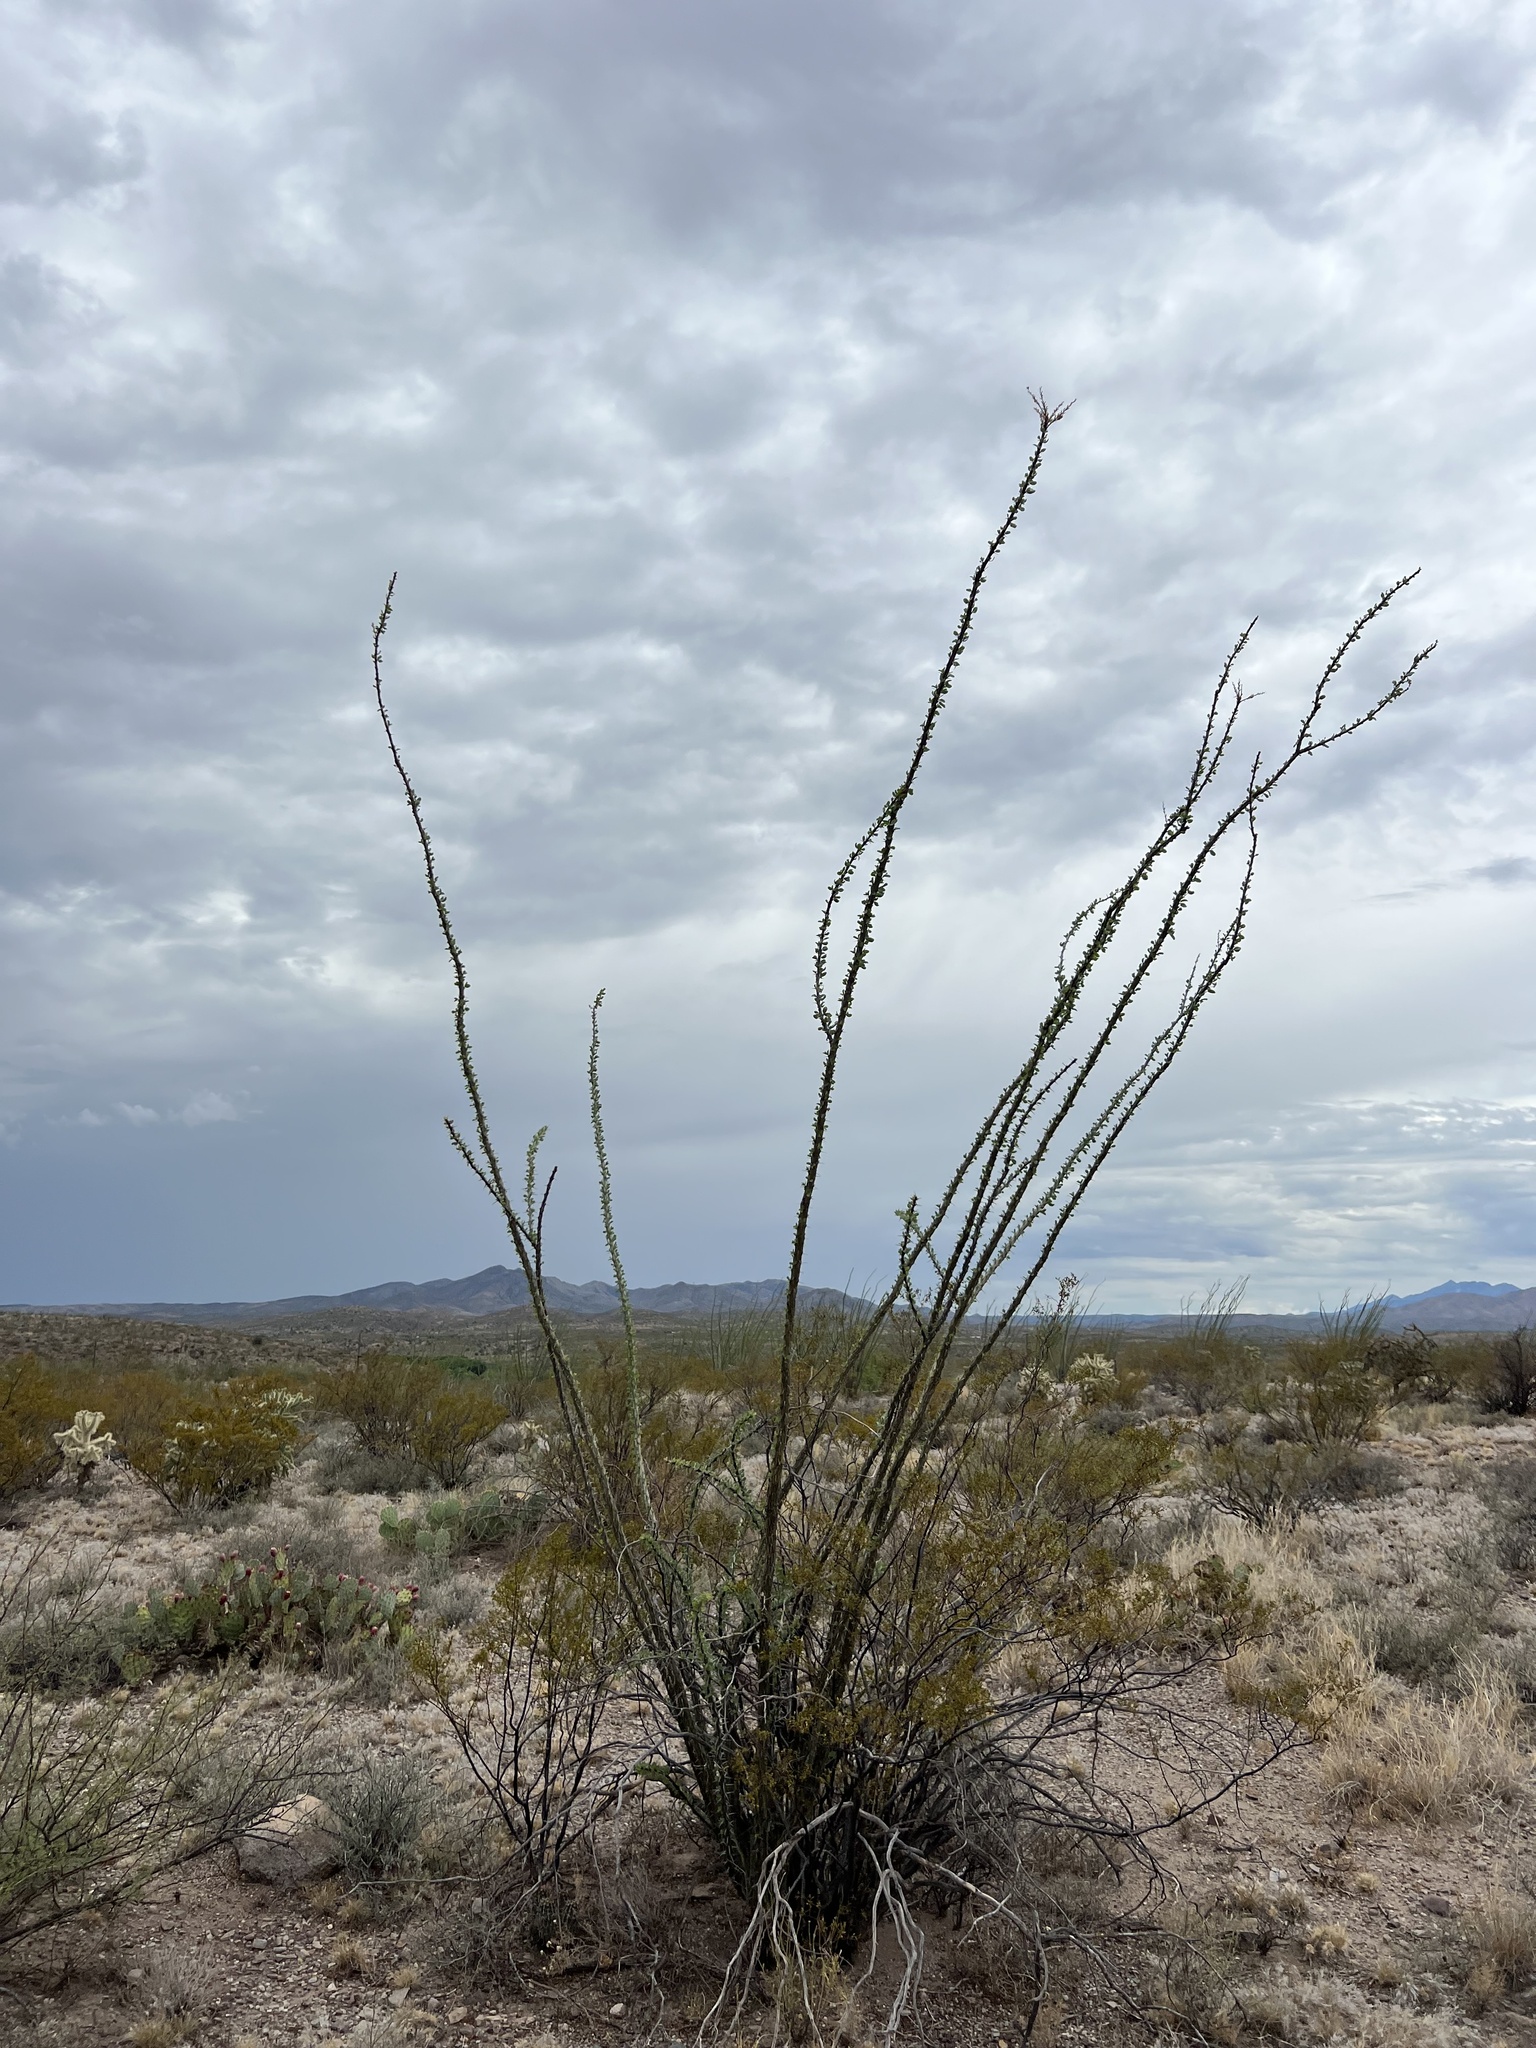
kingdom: Plantae
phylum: Tracheophyta
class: Magnoliopsida
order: Ericales
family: Fouquieriaceae
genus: Fouquieria
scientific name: Fouquieria splendens
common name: Vine-cactus
